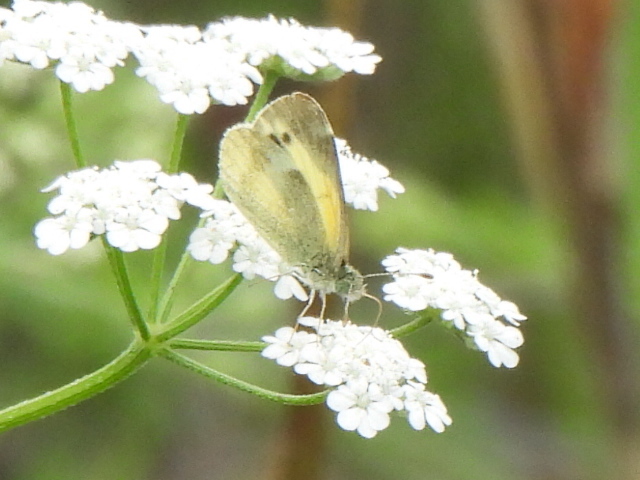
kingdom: Animalia
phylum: Arthropoda
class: Insecta
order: Lepidoptera
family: Pieridae
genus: Nathalis
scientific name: Nathalis iole
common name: Dainty sulphur
